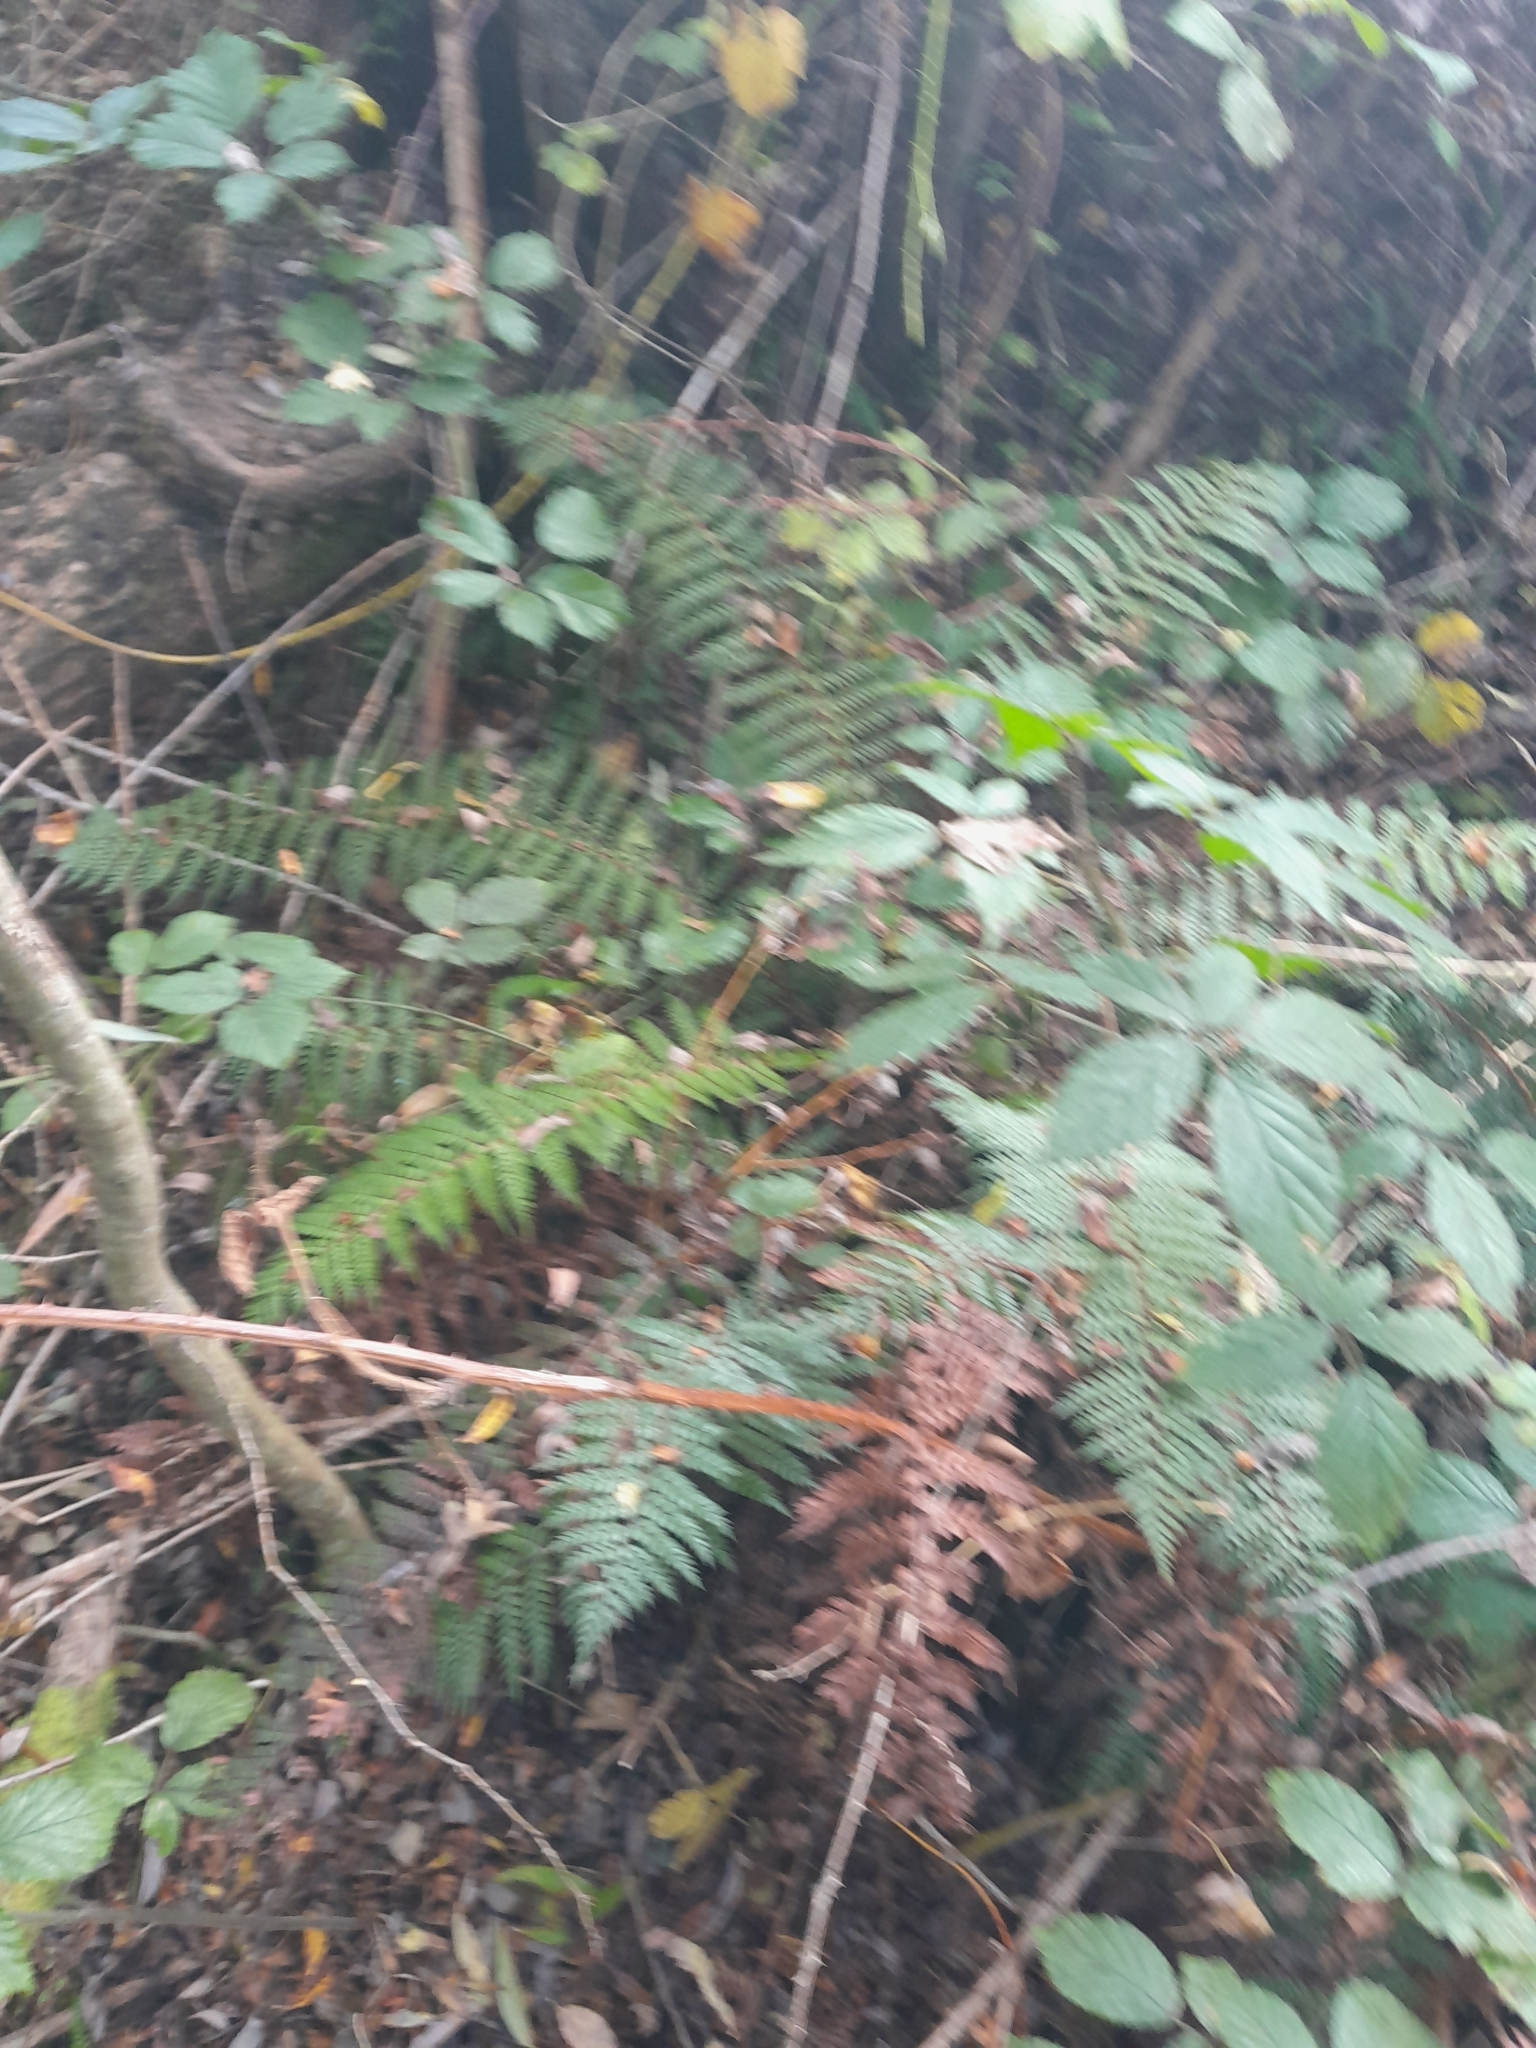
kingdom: Plantae
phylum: Tracheophyta
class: Polypodiopsida
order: Polypodiales
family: Dryopteridaceae
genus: Polystichum
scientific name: Polystichum vestitum
